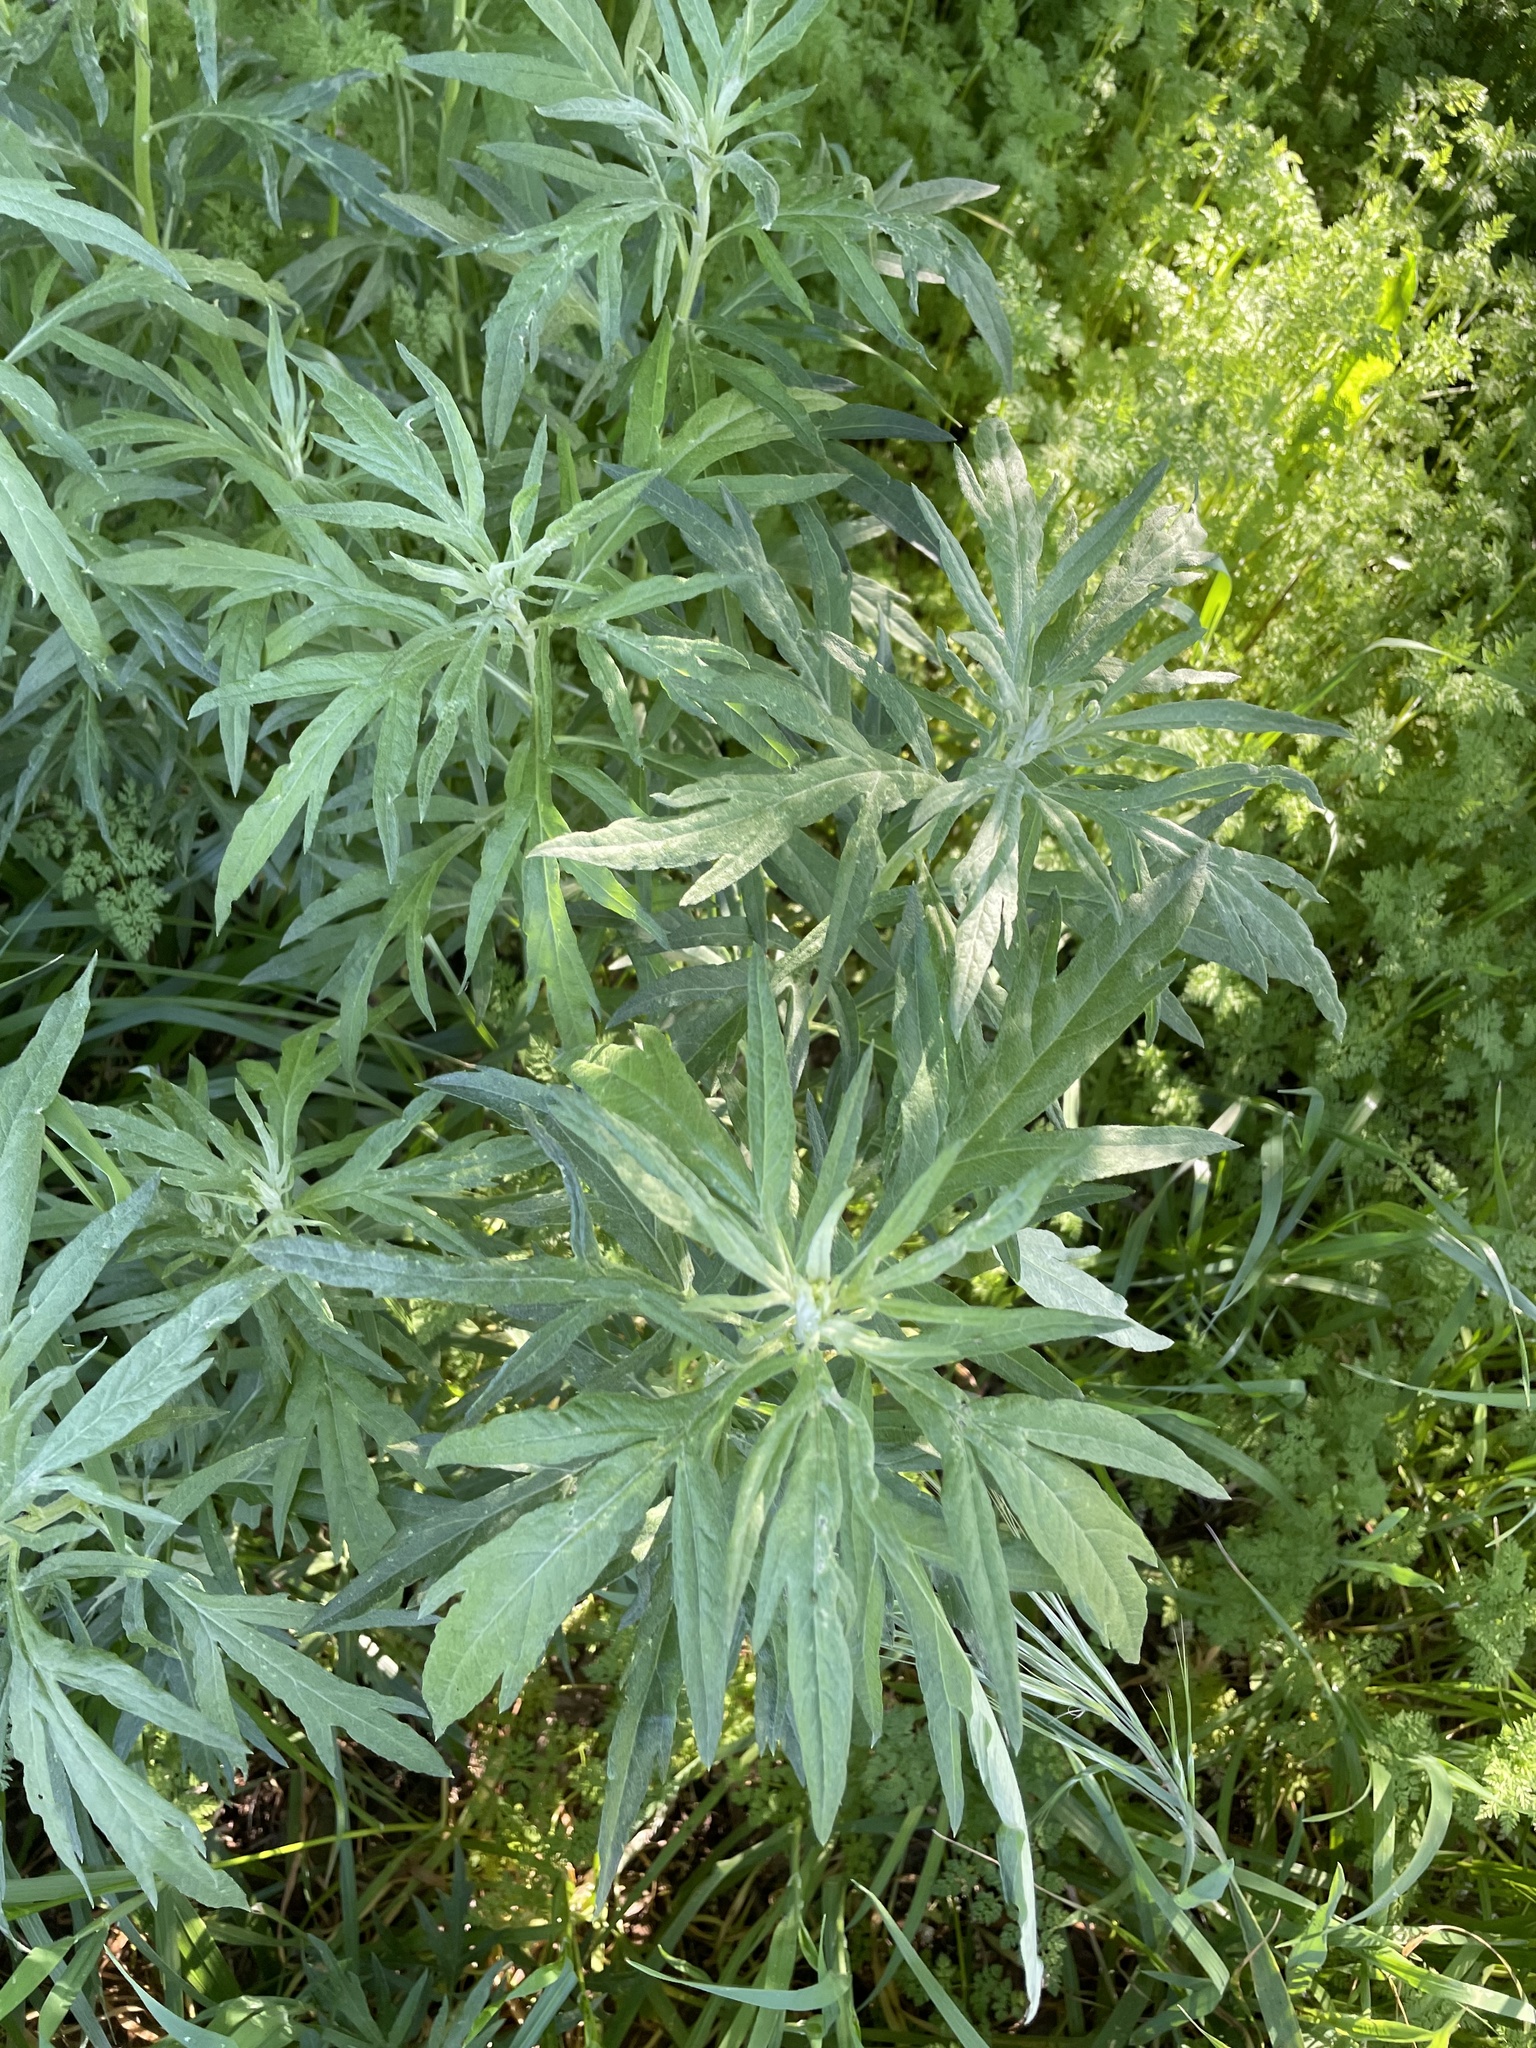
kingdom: Plantae
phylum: Tracheophyta
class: Magnoliopsida
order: Asterales
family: Asteraceae
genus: Artemisia
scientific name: Artemisia douglasiana
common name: Northwest mugwort
